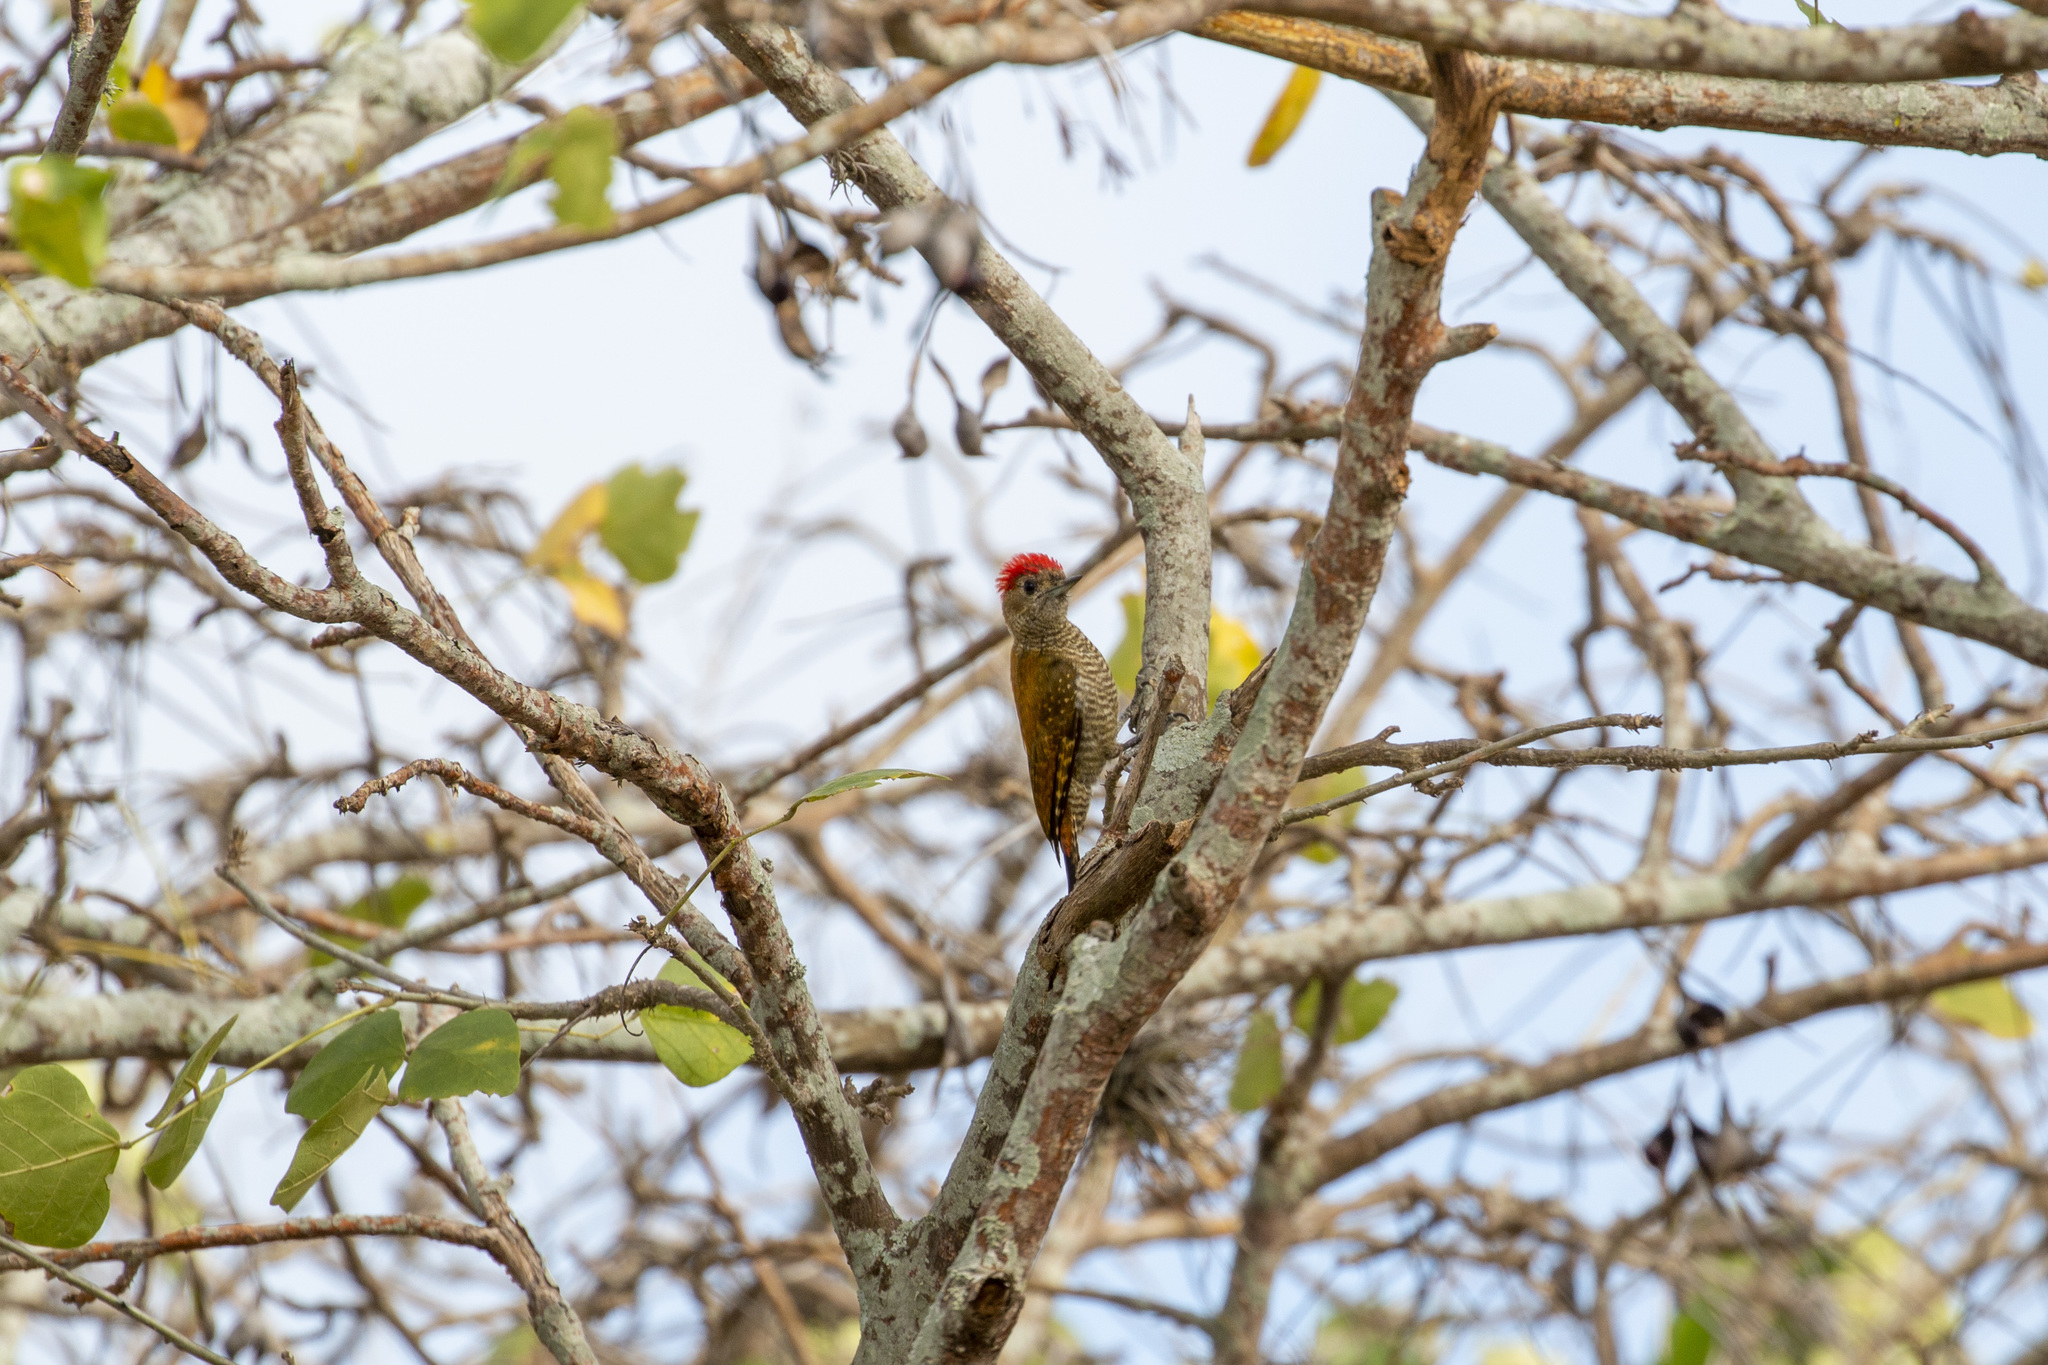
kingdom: Animalia
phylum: Chordata
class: Aves
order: Piciformes
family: Picidae
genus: Veniliornis
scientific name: Veniliornis passerinus
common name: Little woodpecker
